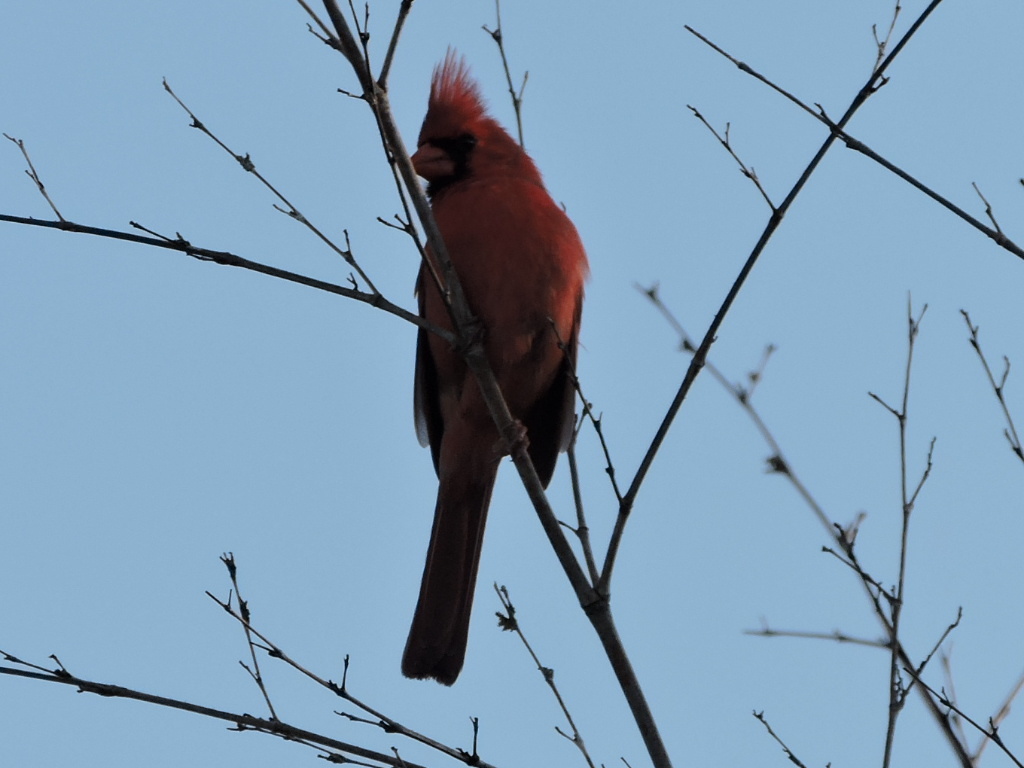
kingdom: Animalia
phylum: Chordata
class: Aves
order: Passeriformes
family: Cardinalidae
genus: Cardinalis
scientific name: Cardinalis cardinalis
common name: Northern cardinal
